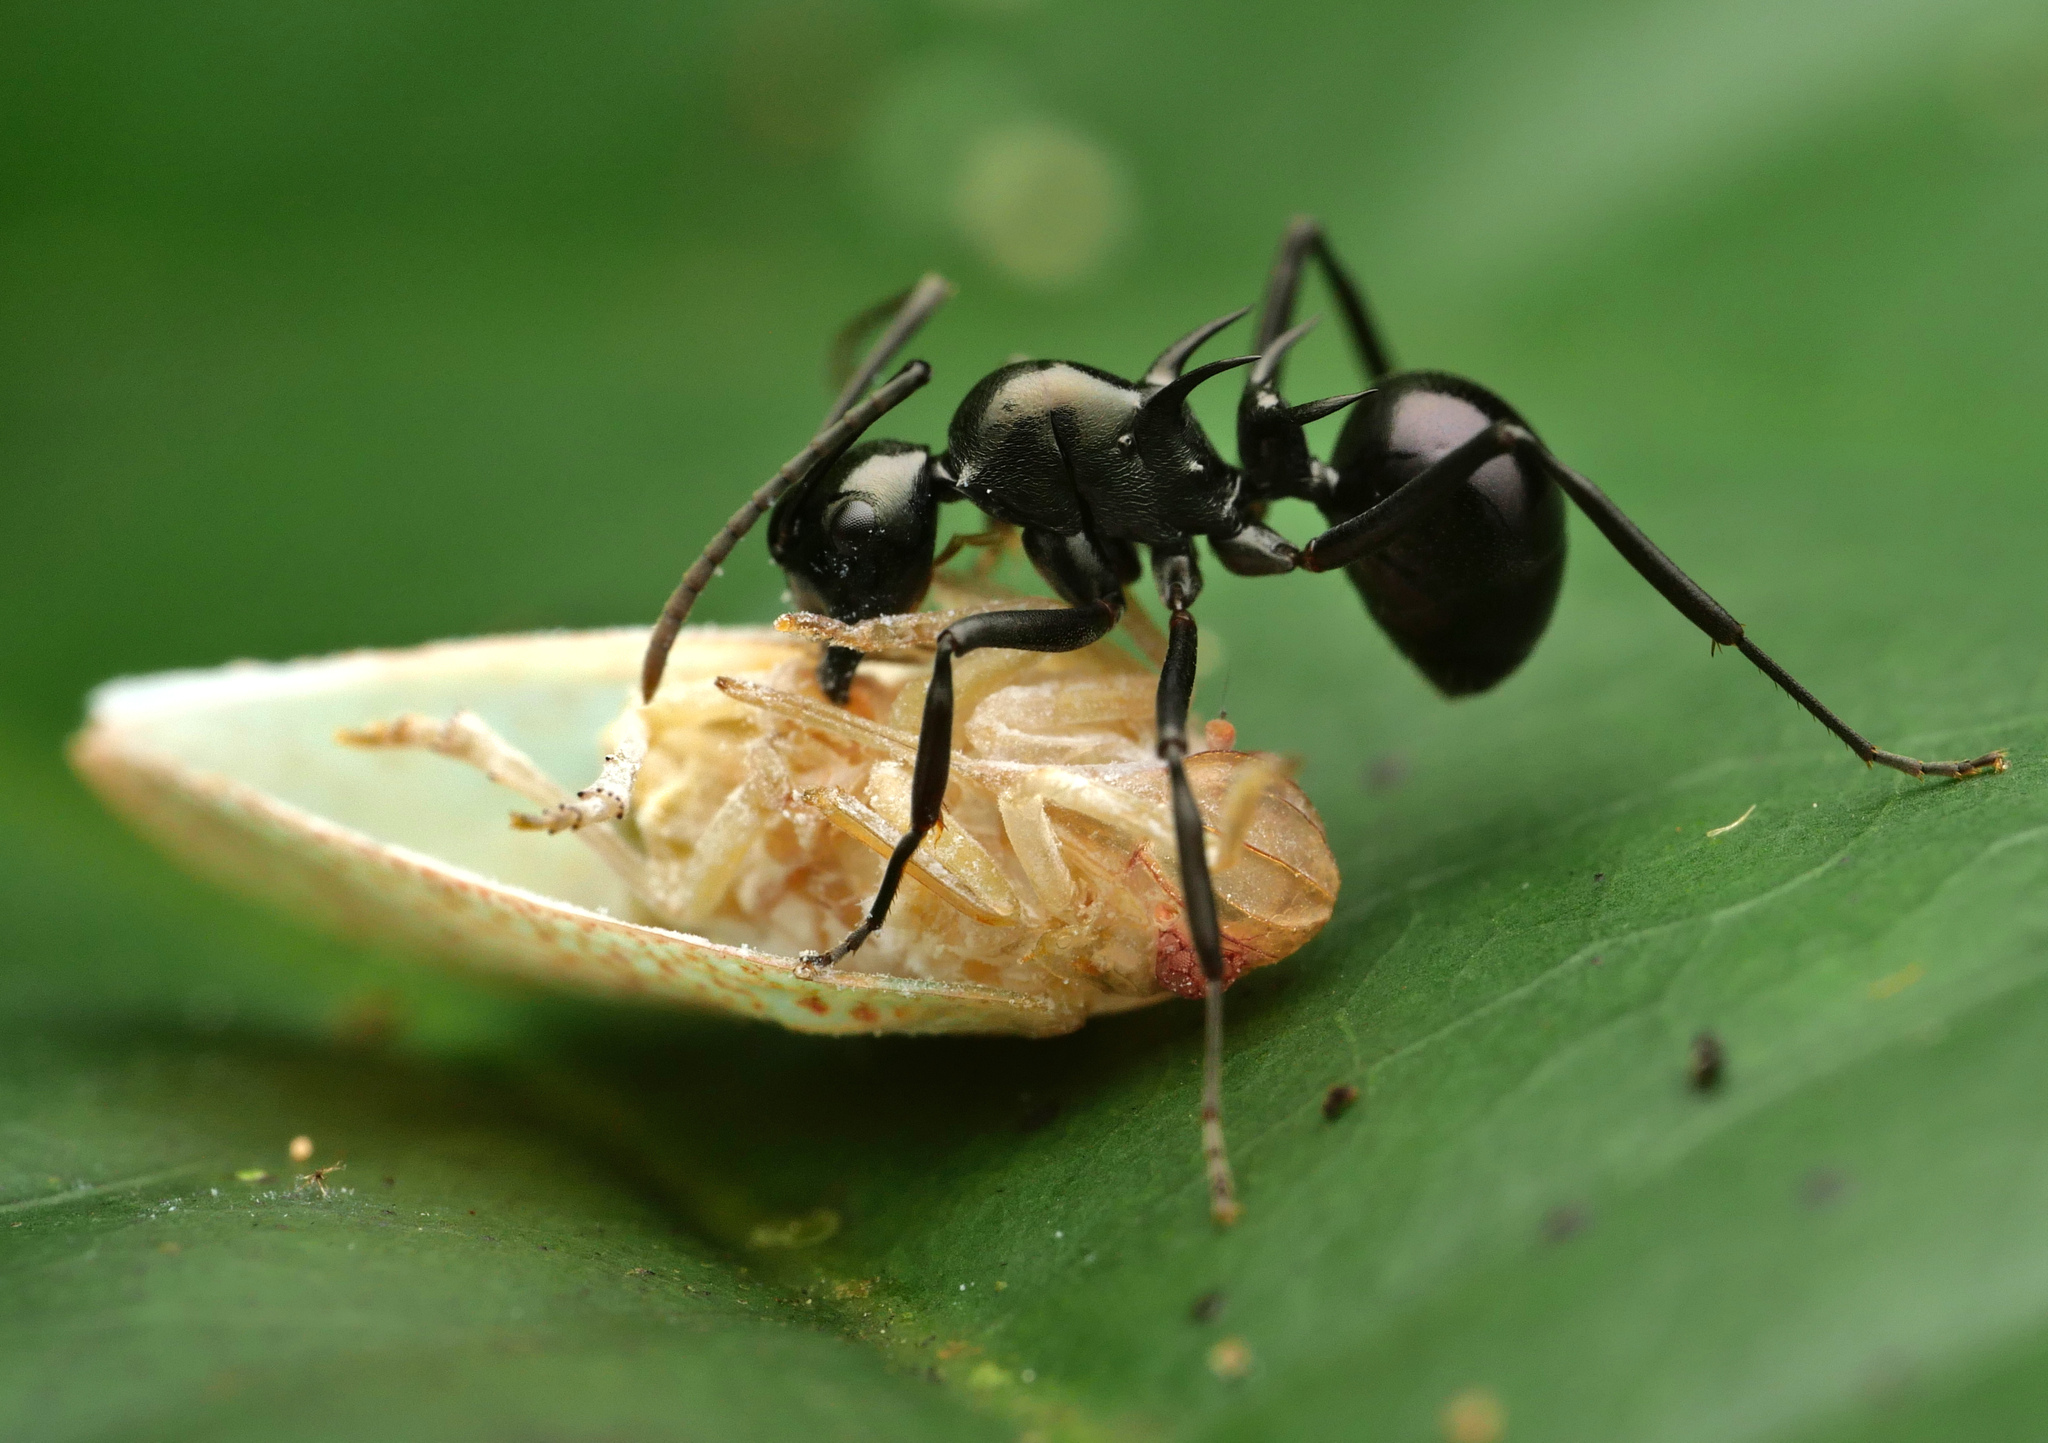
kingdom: Animalia
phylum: Arthropoda
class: Insecta
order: Hymenoptera
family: Formicidae
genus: Polyrhachis
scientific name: Polyrhachis mucronata
